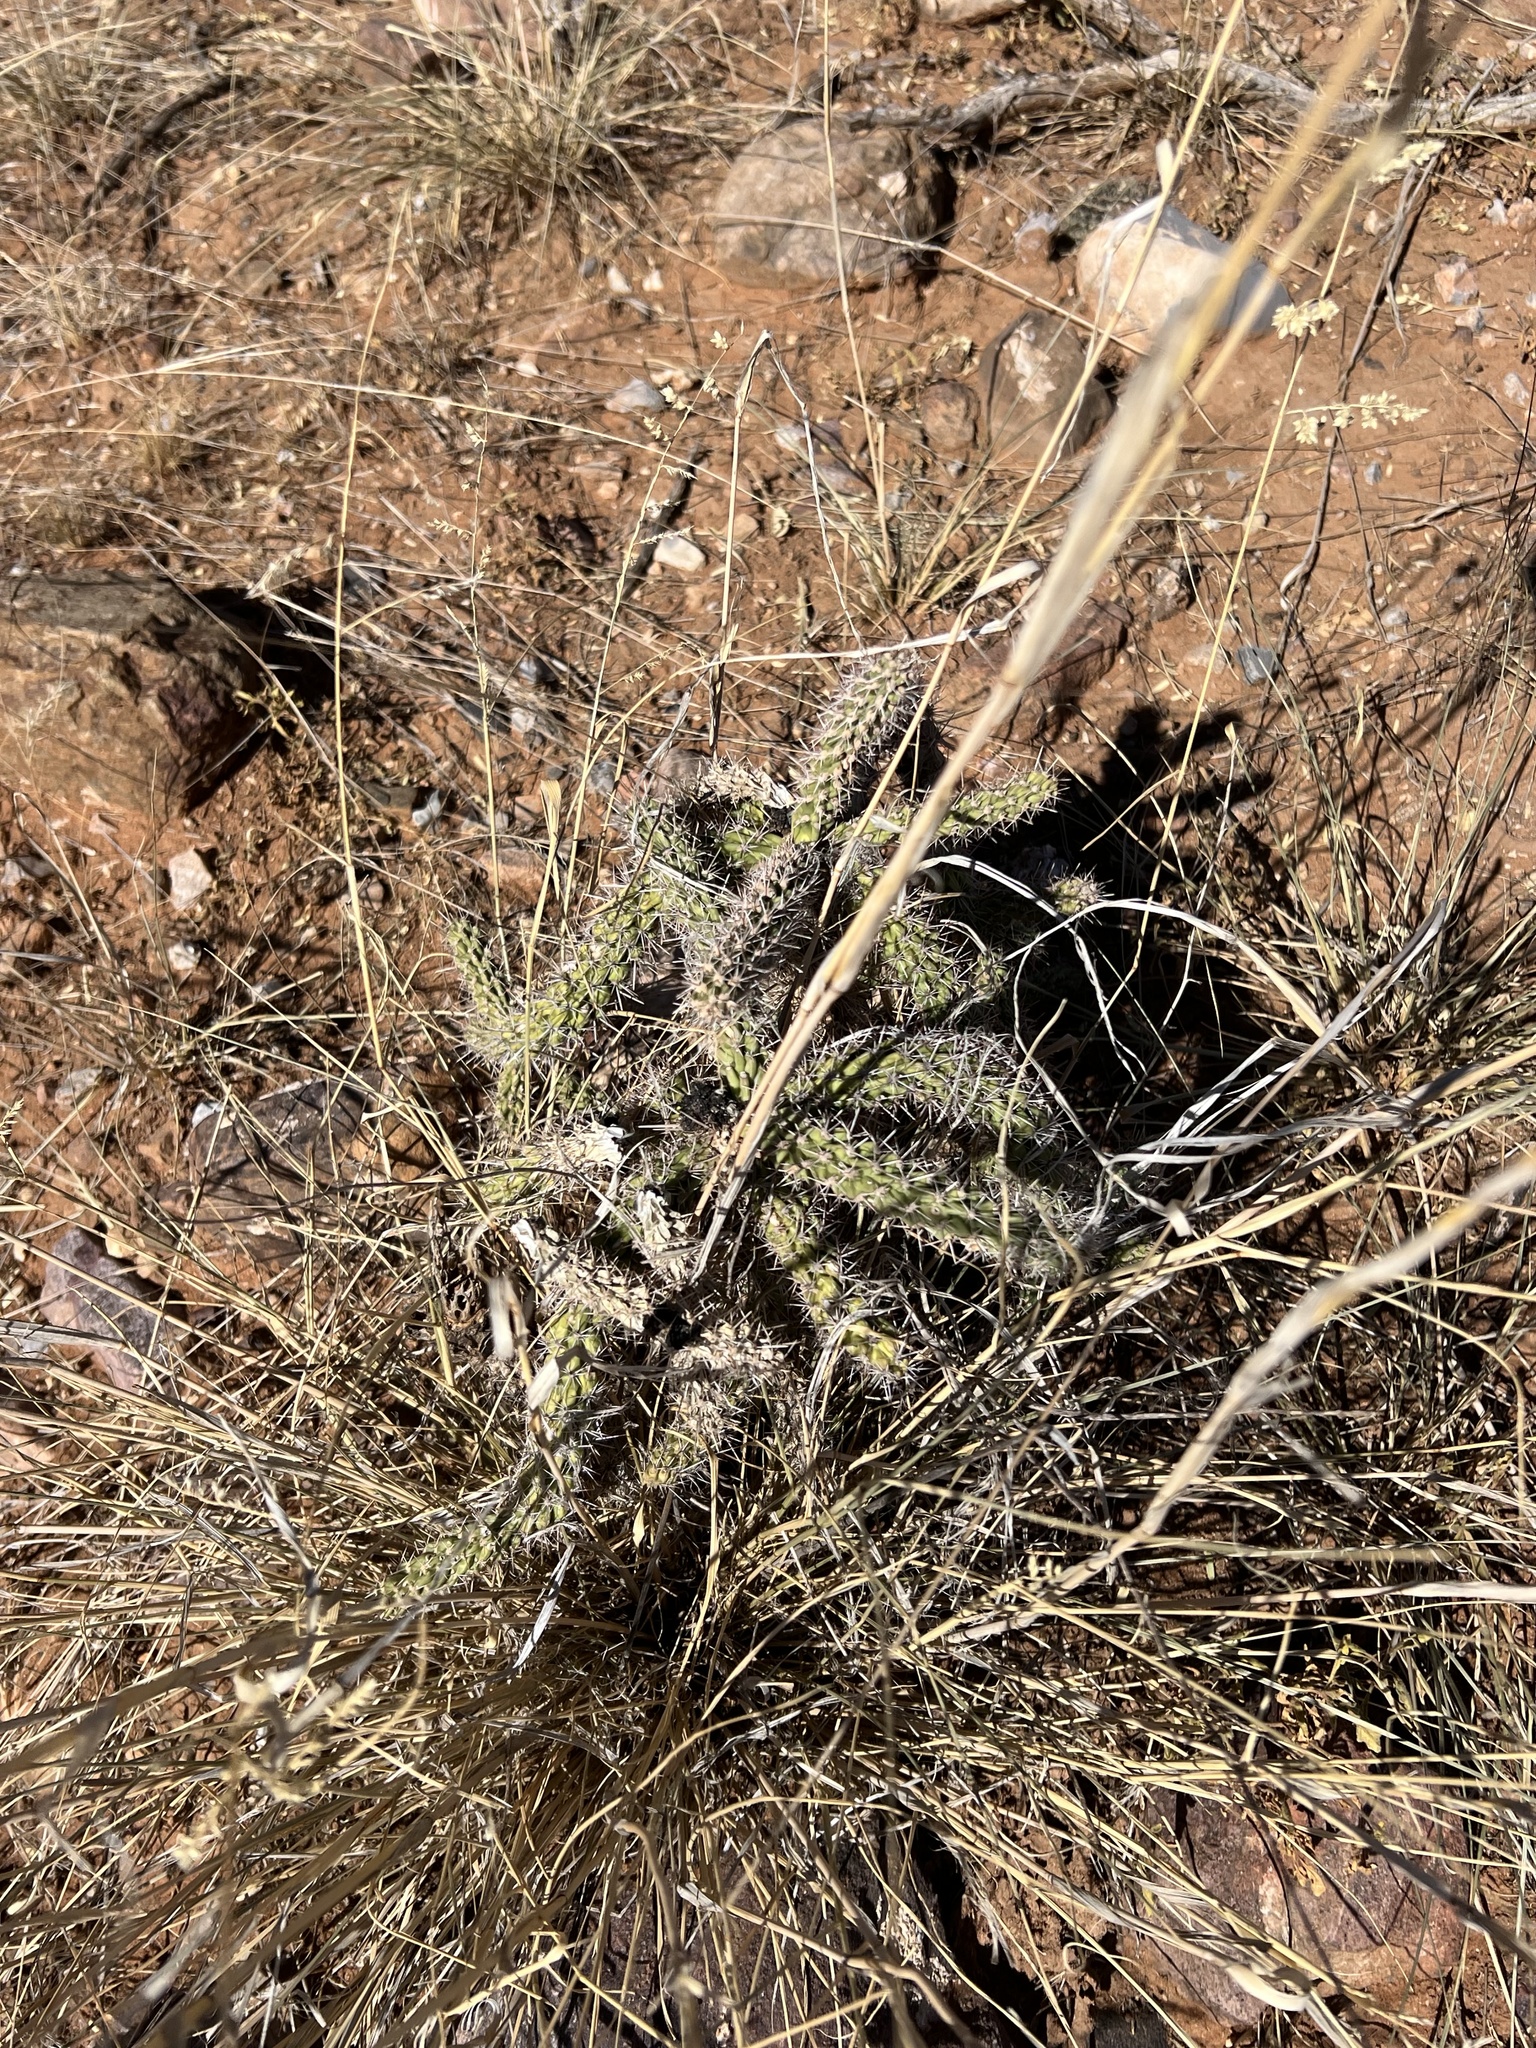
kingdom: Plantae
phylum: Tracheophyta
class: Magnoliopsida
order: Caryophyllales
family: Cactaceae
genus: Cylindropuntia
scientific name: Cylindropuntia imbricata
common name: Candelabrum cactus
